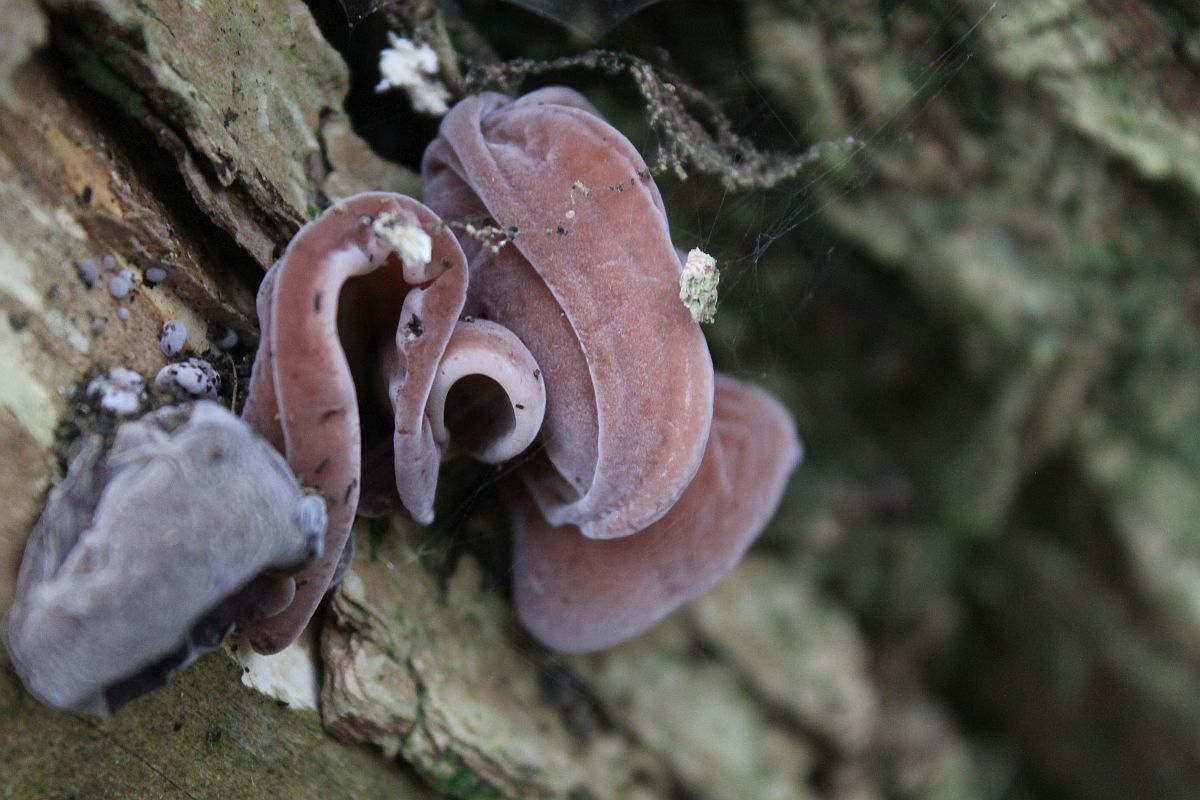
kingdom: Fungi
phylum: Basidiomycota
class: Agaricomycetes
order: Auriculariales
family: Auriculariaceae
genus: Auricularia
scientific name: Auricularia auricula-judae
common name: Jelly ear
